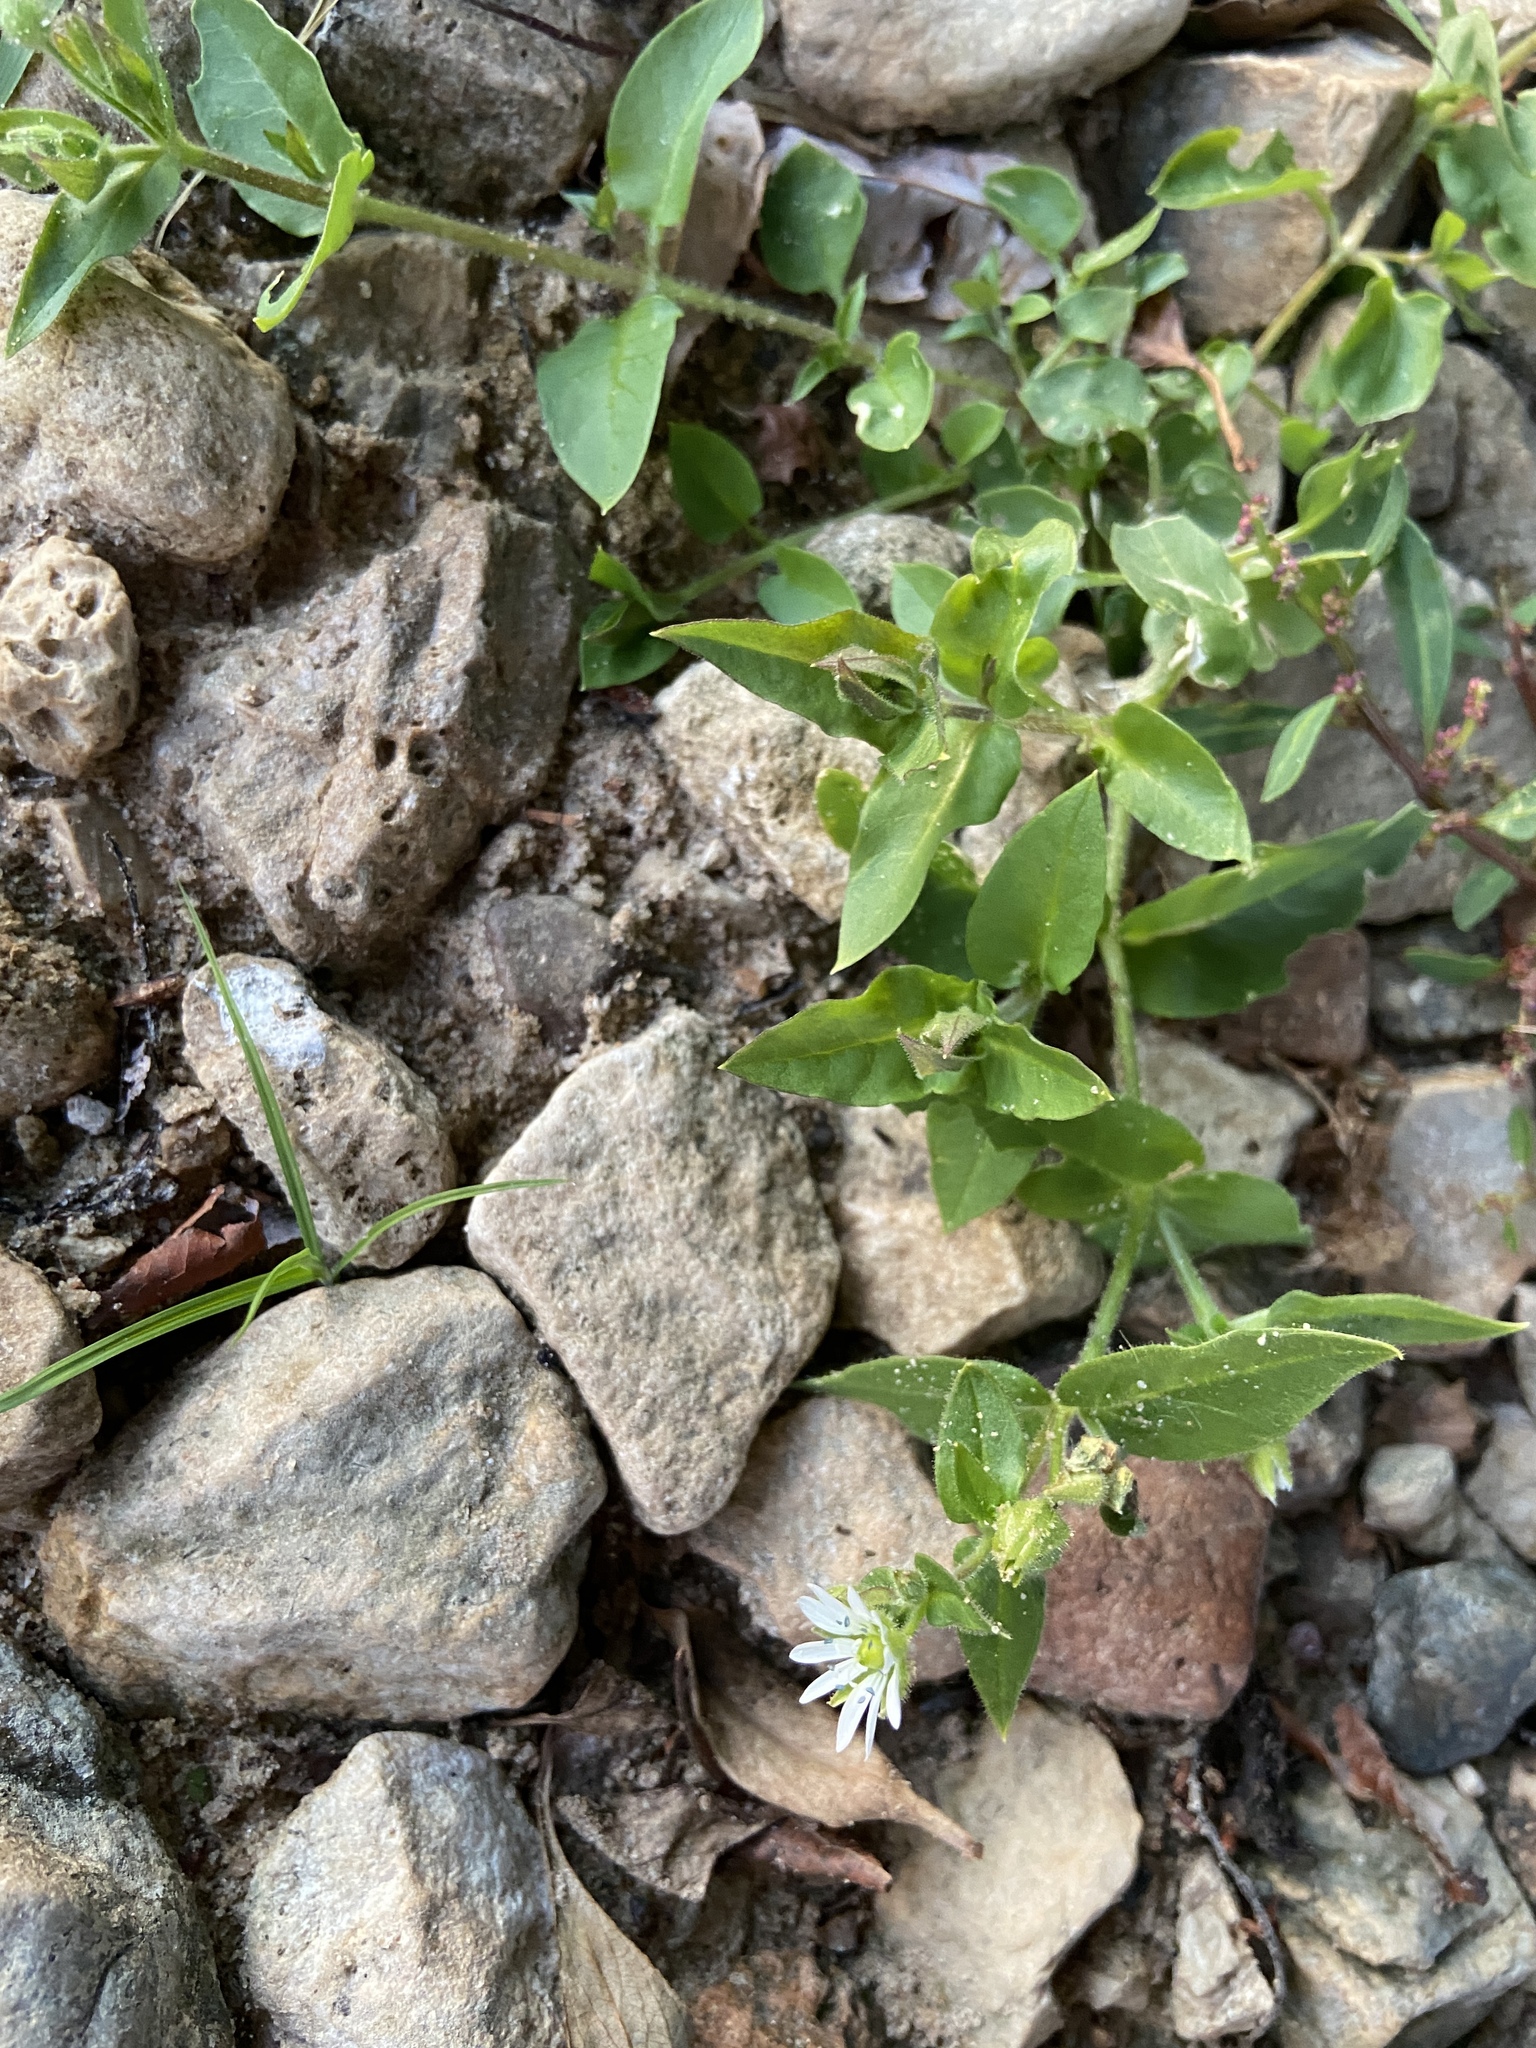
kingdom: Plantae
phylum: Tracheophyta
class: Magnoliopsida
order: Caryophyllales
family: Caryophyllaceae
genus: Stellaria
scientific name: Stellaria aquatica
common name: Water chickweed
